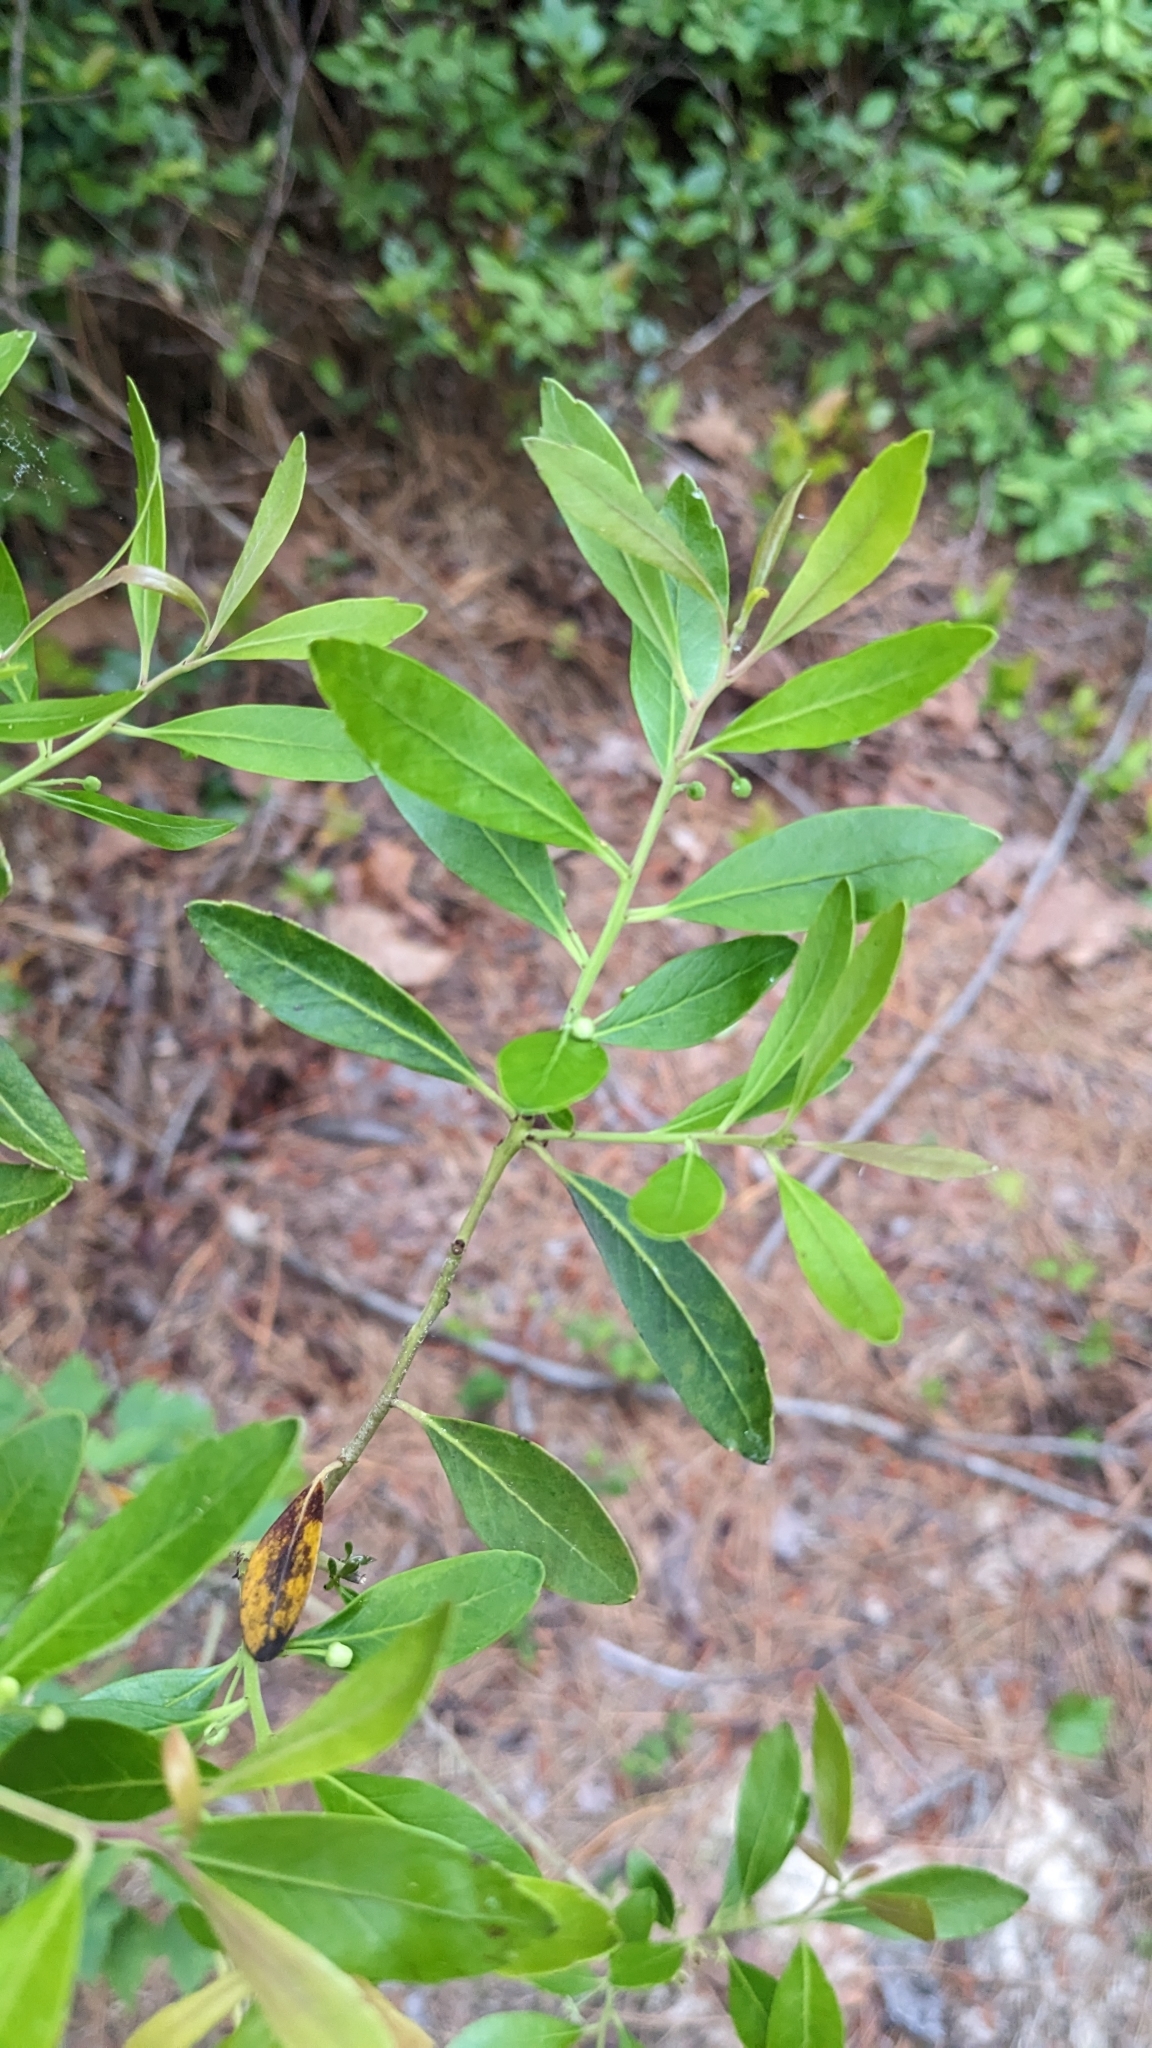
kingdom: Plantae
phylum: Tracheophyta
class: Magnoliopsida
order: Aquifoliales
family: Aquifoliaceae
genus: Ilex
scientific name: Ilex glabra
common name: Bitter gallberry
